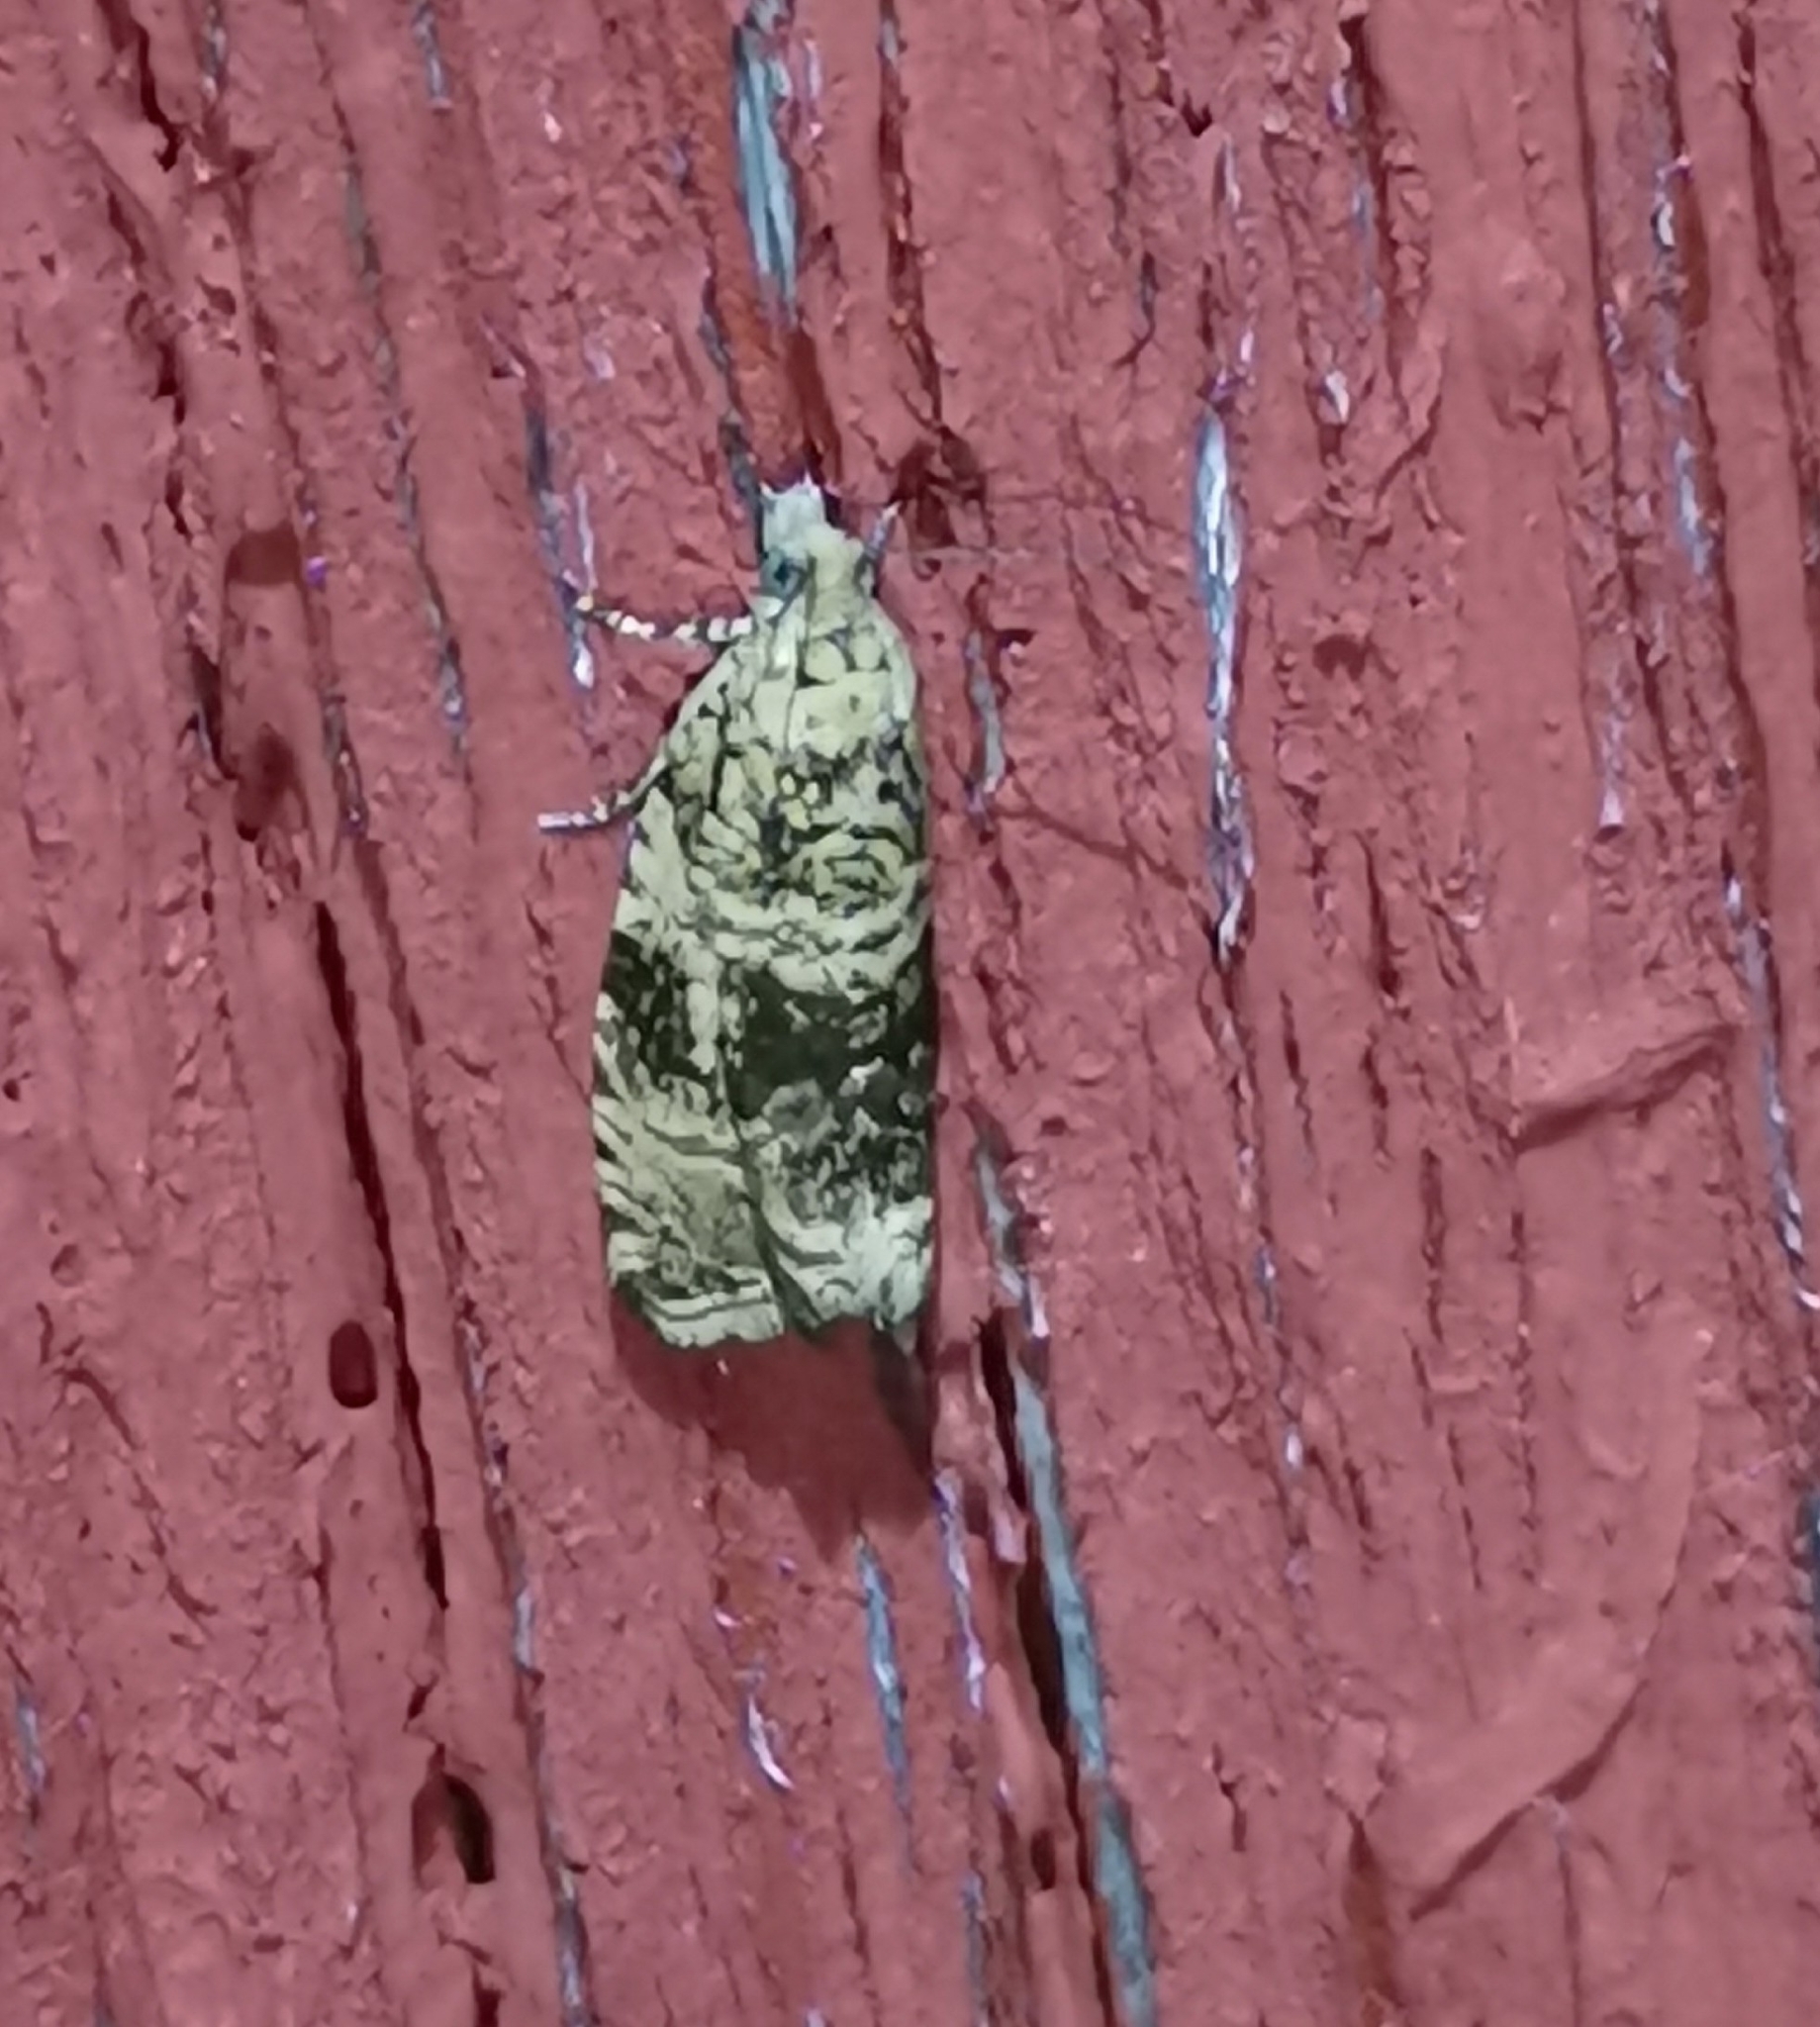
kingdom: Animalia
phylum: Arthropoda
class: Insecta
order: Lepidoptera
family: Tortricidae
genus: Syricoris
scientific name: Syricoris lacunana
